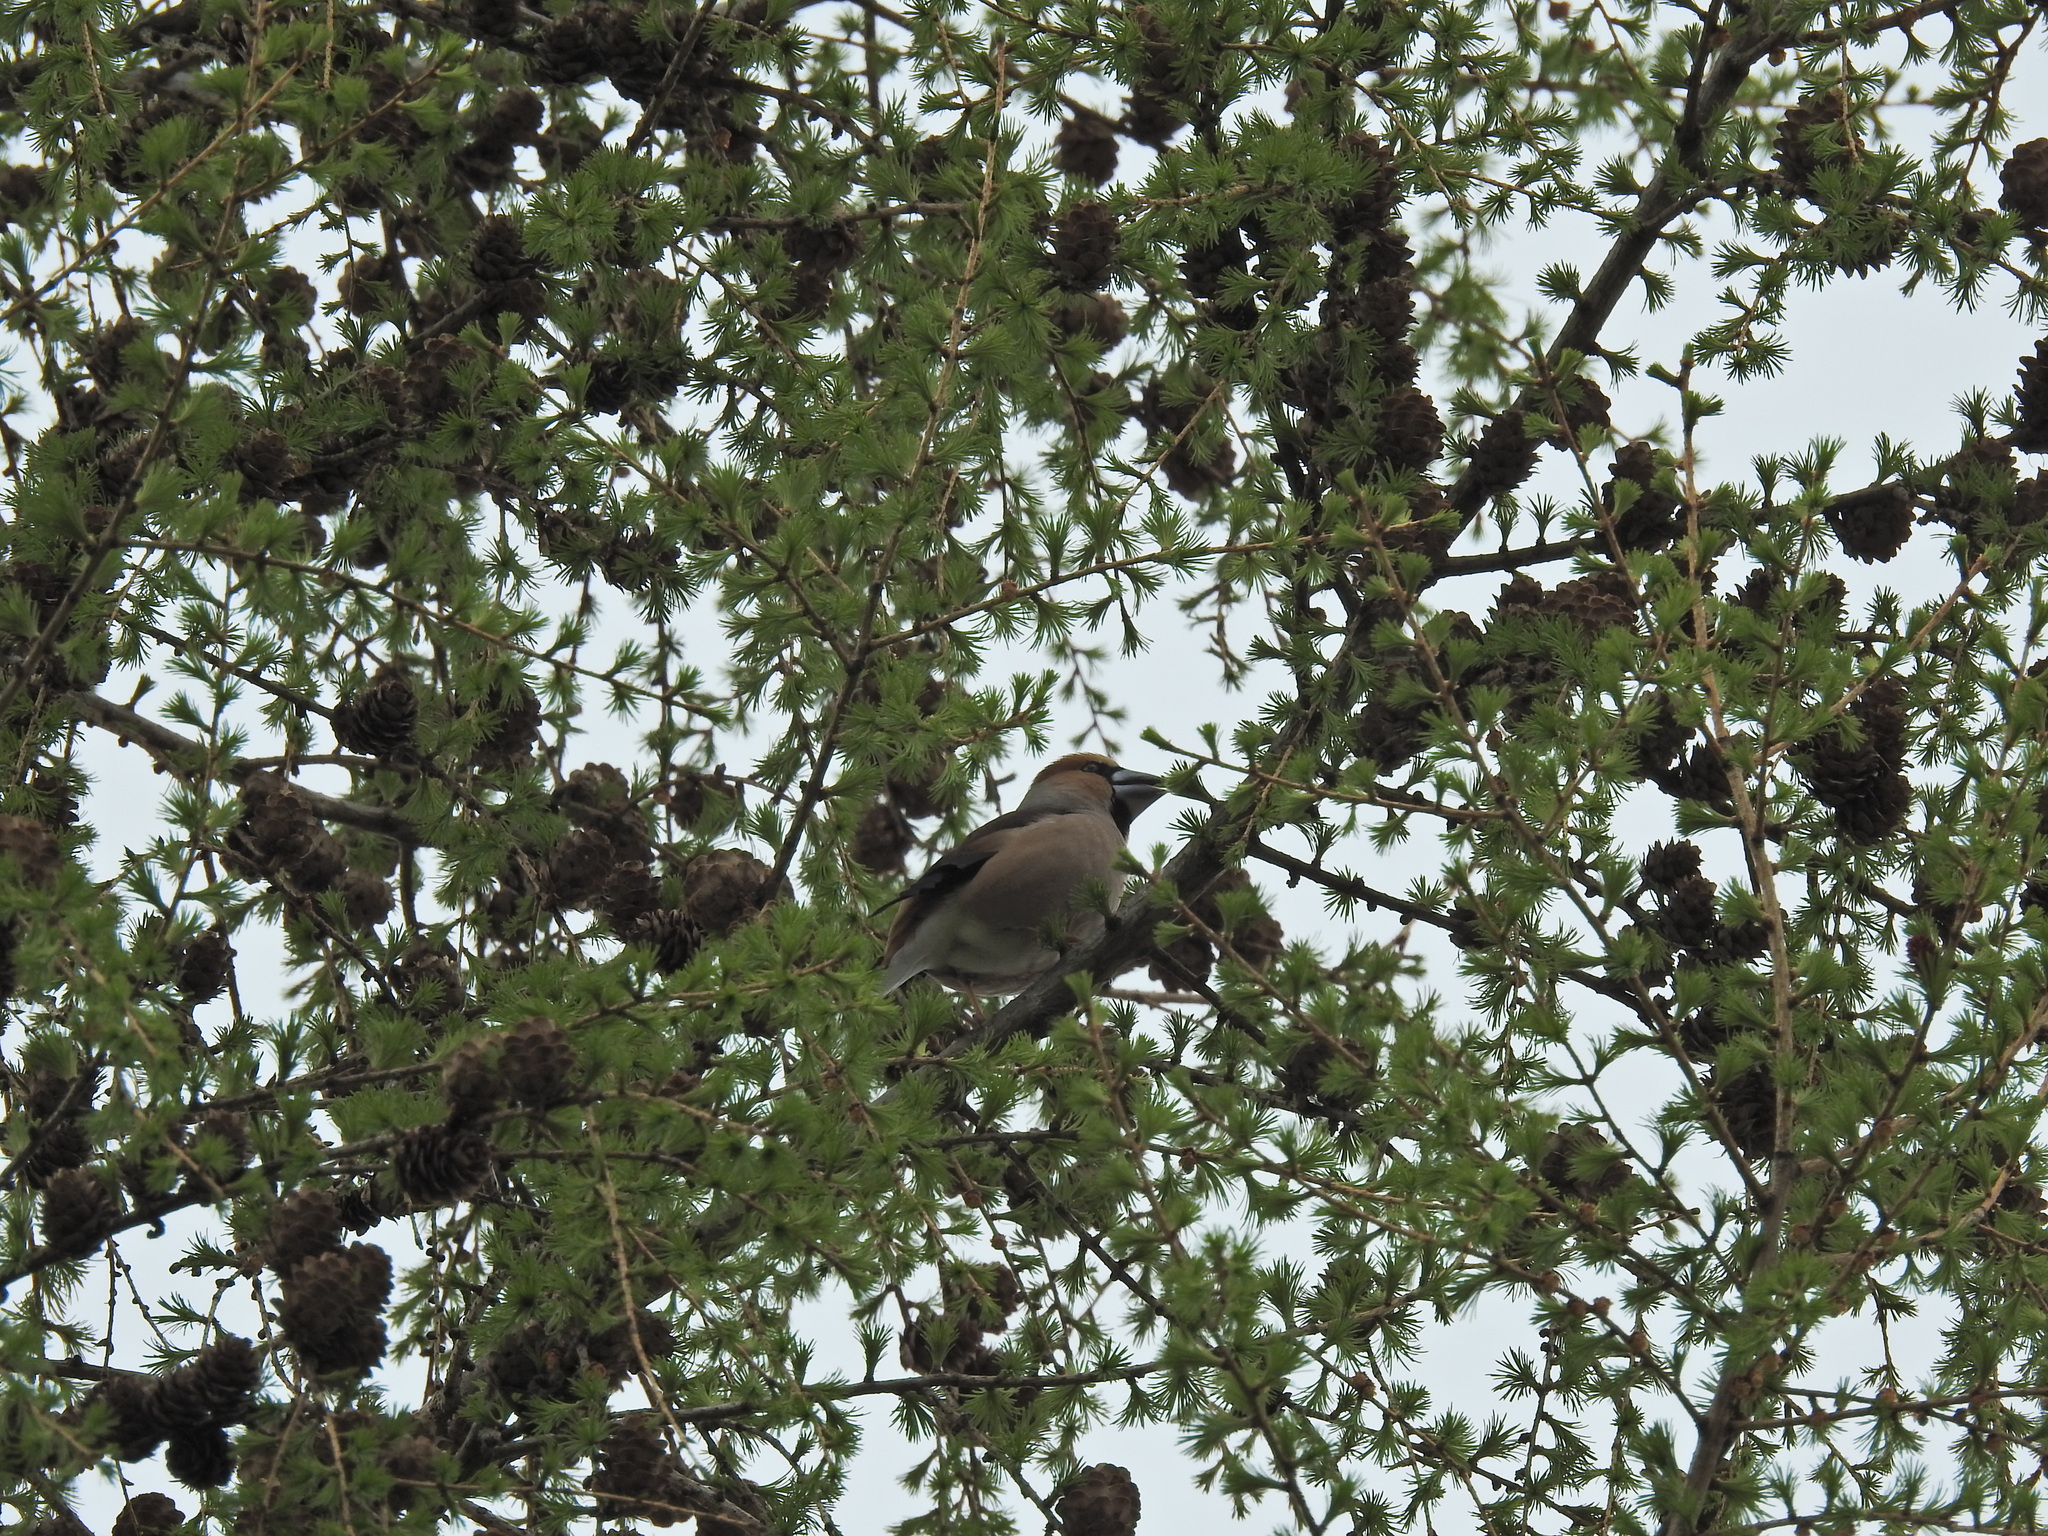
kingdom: Animalia
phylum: Chordata
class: Aves
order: Passeriformes
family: Fringillidae
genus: Coccothraustes
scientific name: Coccothraustes coccothraustes
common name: Hawfinch
